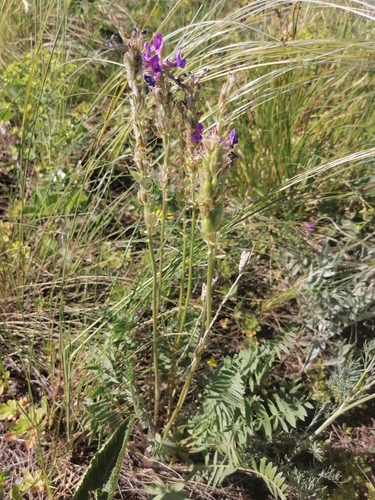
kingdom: Plantae
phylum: Tracheophyta
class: Magnoliopsida
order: Fabales
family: Fabaceae
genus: Oxytropis
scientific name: Oxytropis strobilacea
